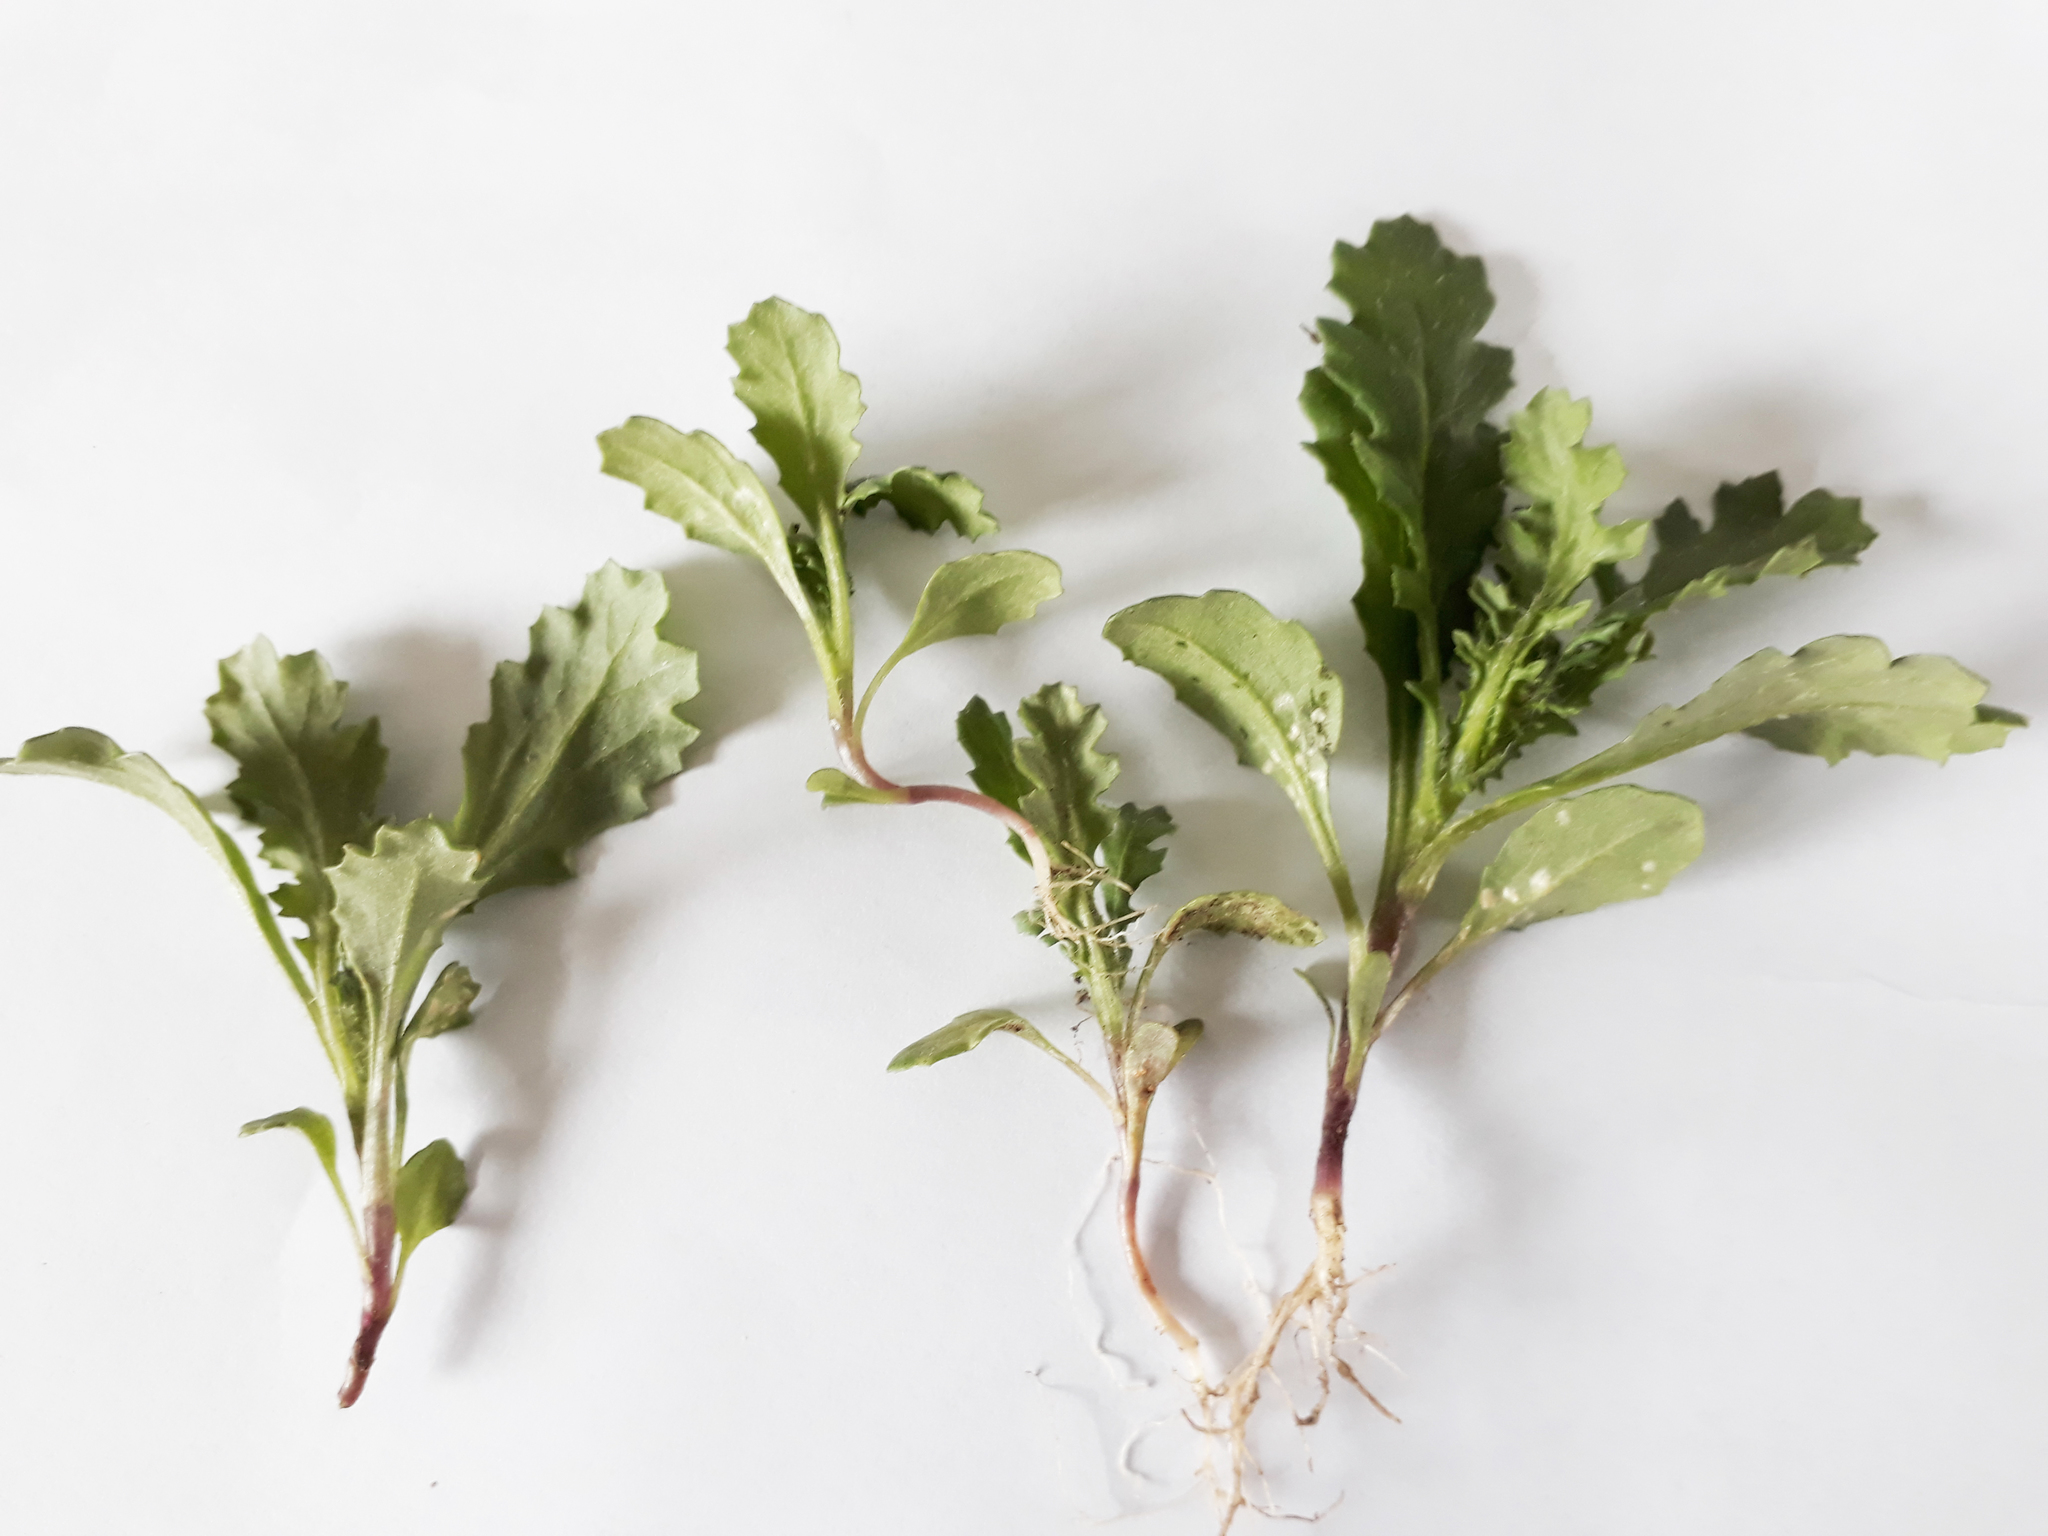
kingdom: Chromista
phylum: Oomycota
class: Peronosporea
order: Albuginales
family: Albuginaceae
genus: Pustula
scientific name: Pustula
